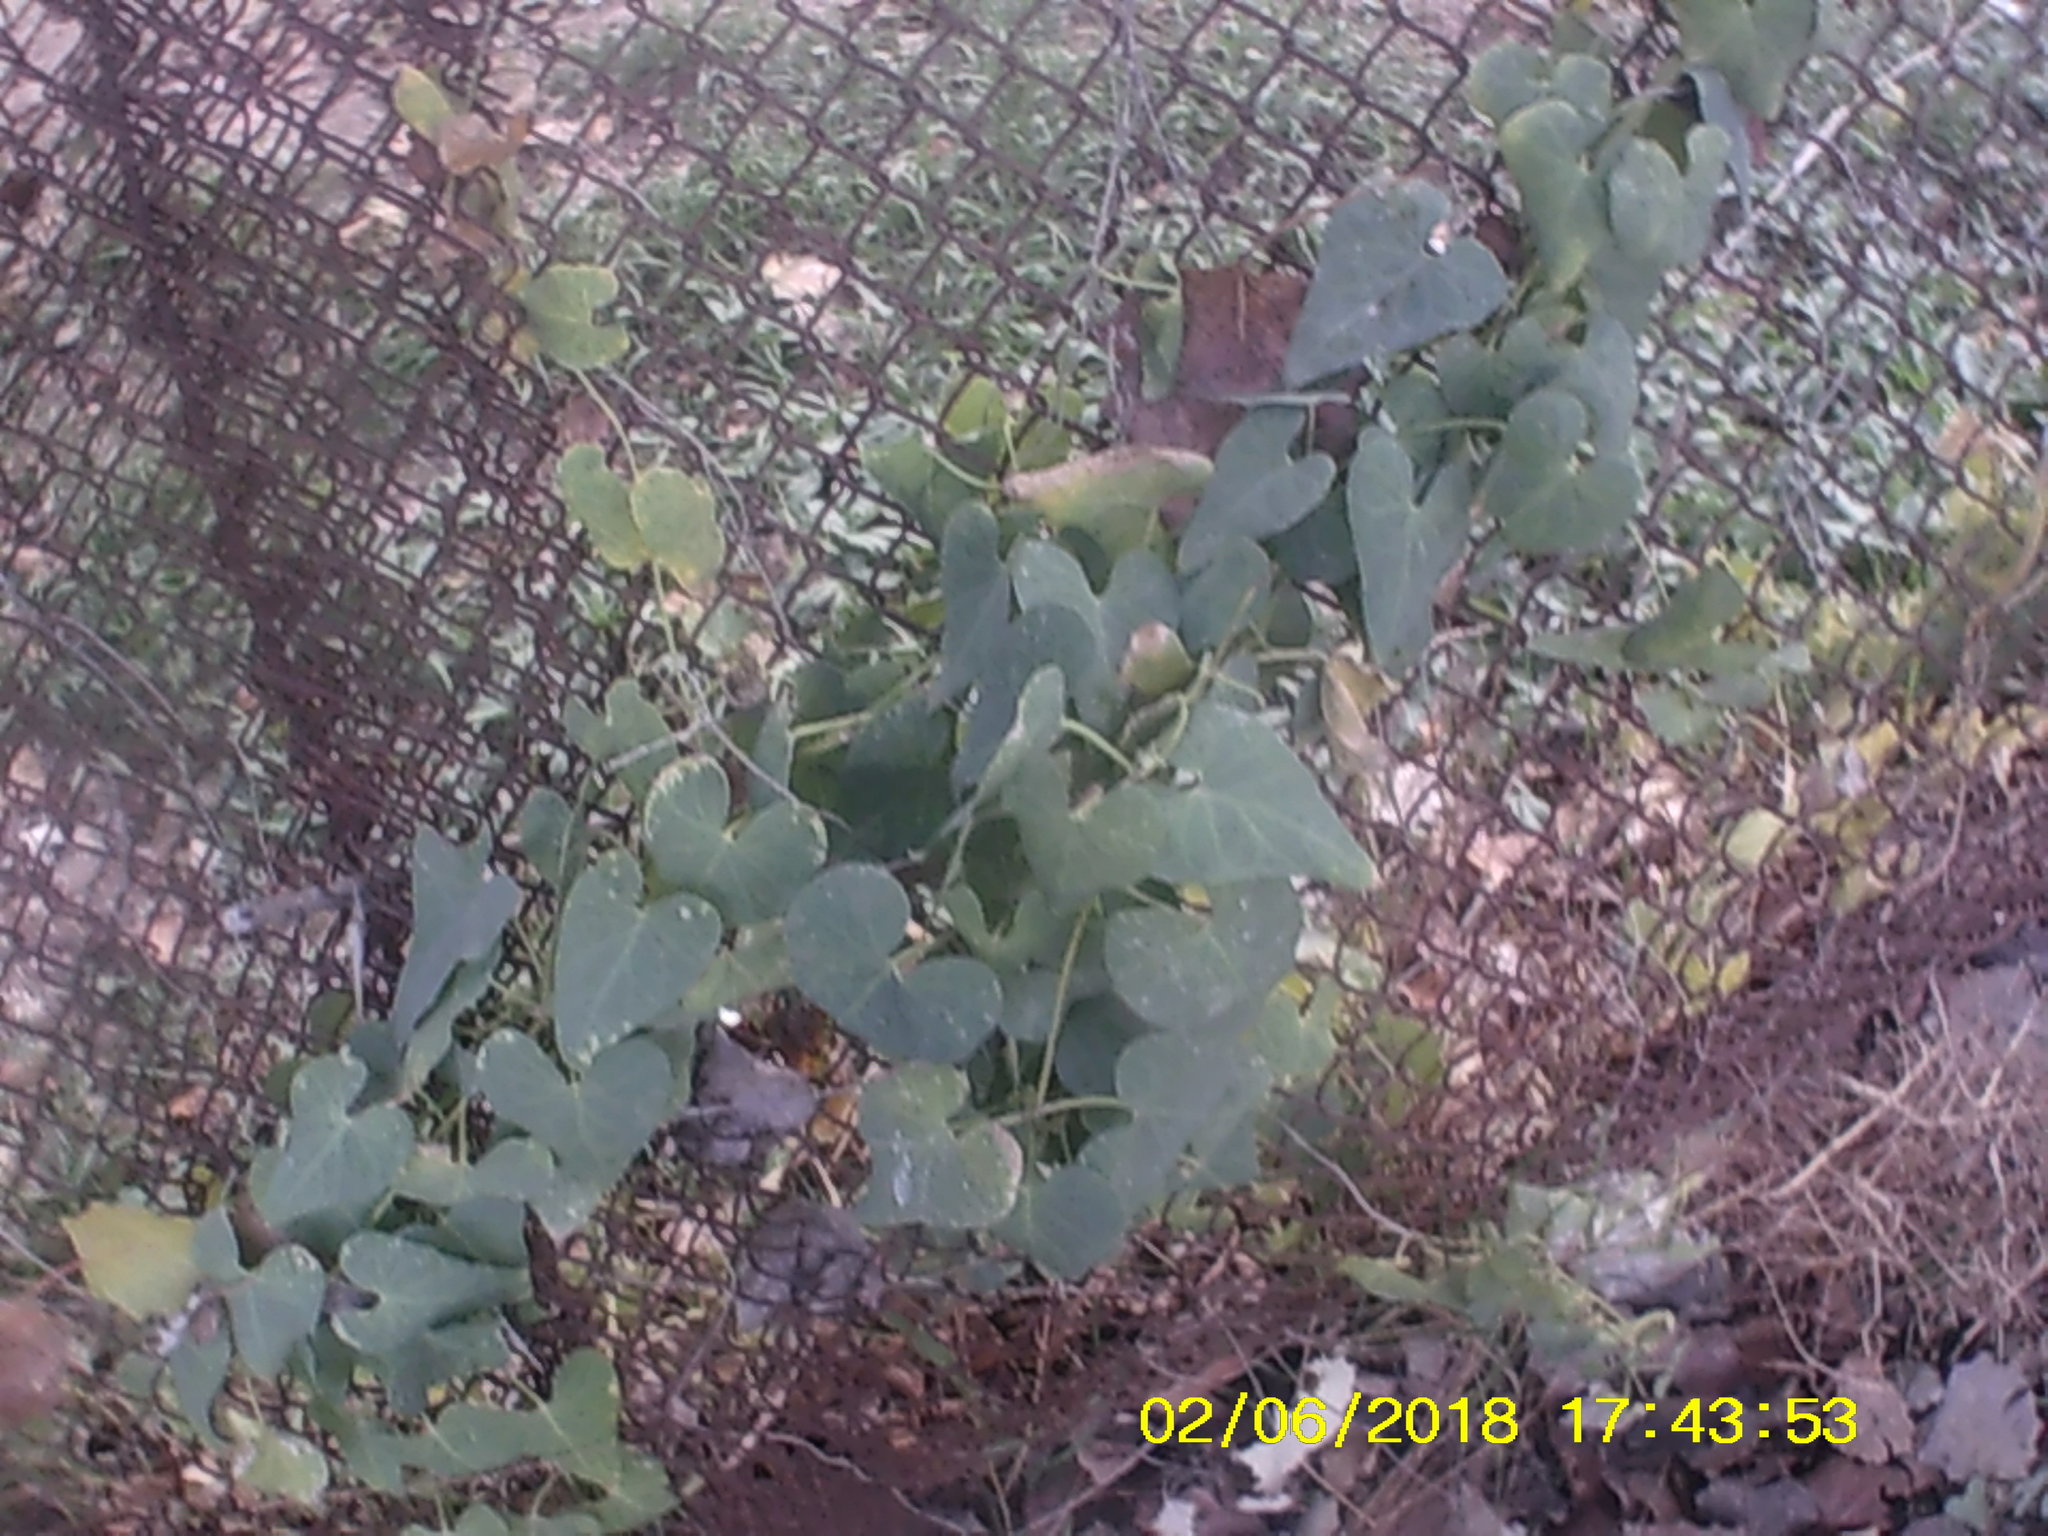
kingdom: Plantae
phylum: Tracheophyta
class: Magnoliopsida
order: Gentianales
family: Apocynaceae
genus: Cynanchum
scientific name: Cynanchum acutum
